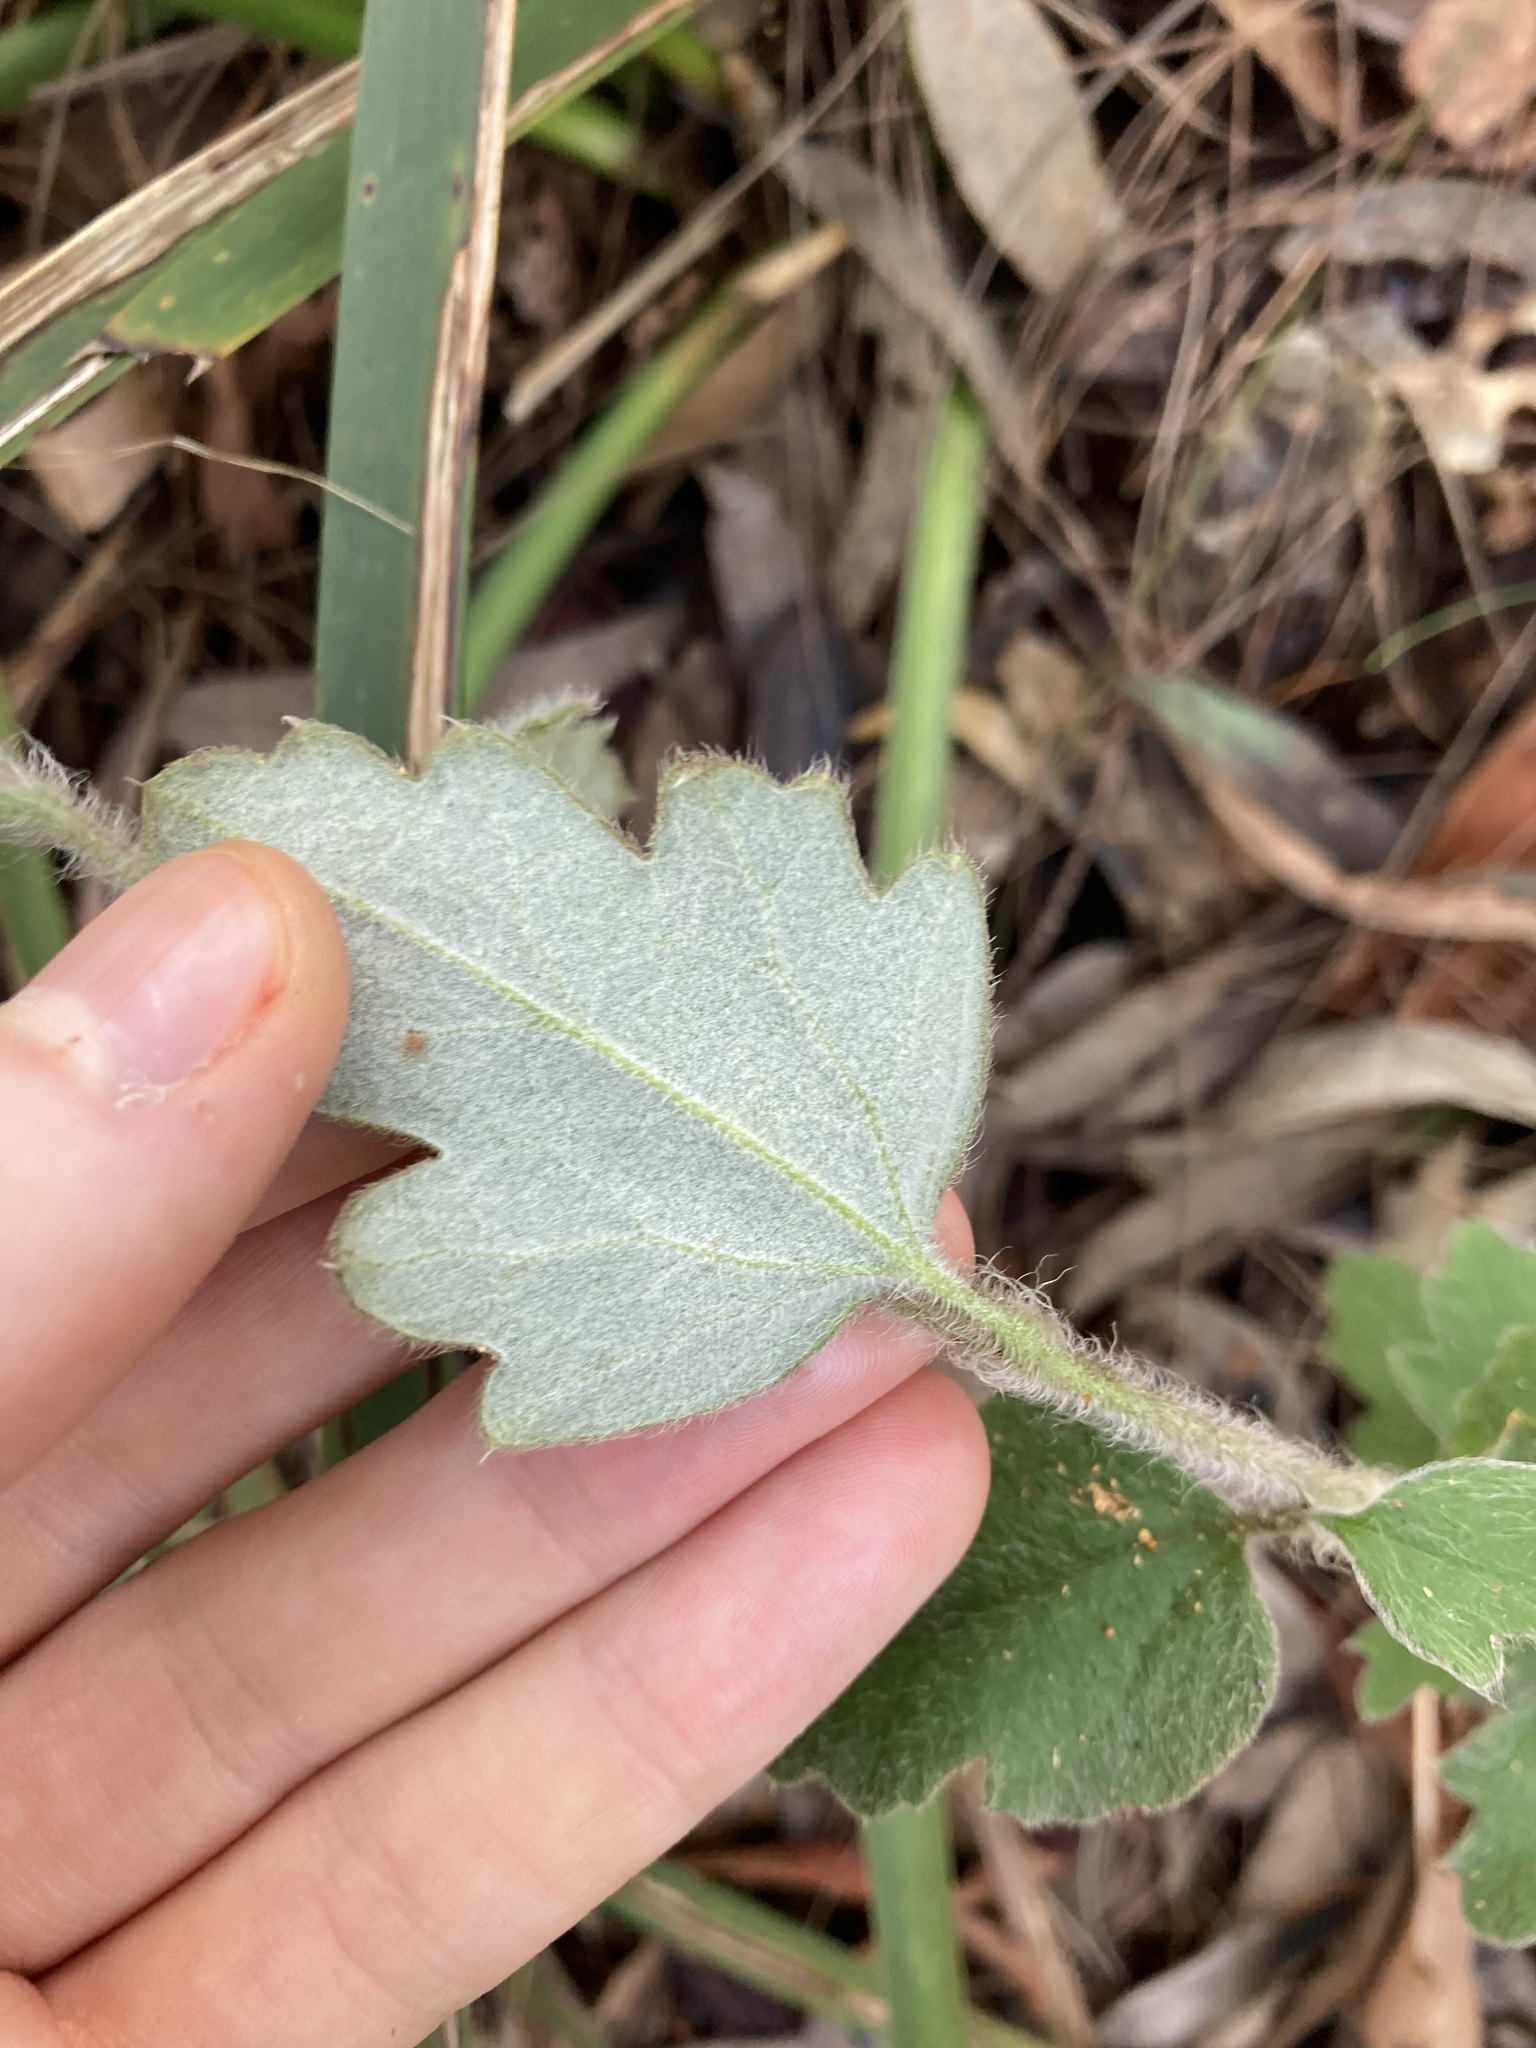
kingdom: Plantae
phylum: Tracheophyta
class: Magnoliopsida
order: Apiales
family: Apiaceae
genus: Xanthosia
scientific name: Xanthosia pilosa
